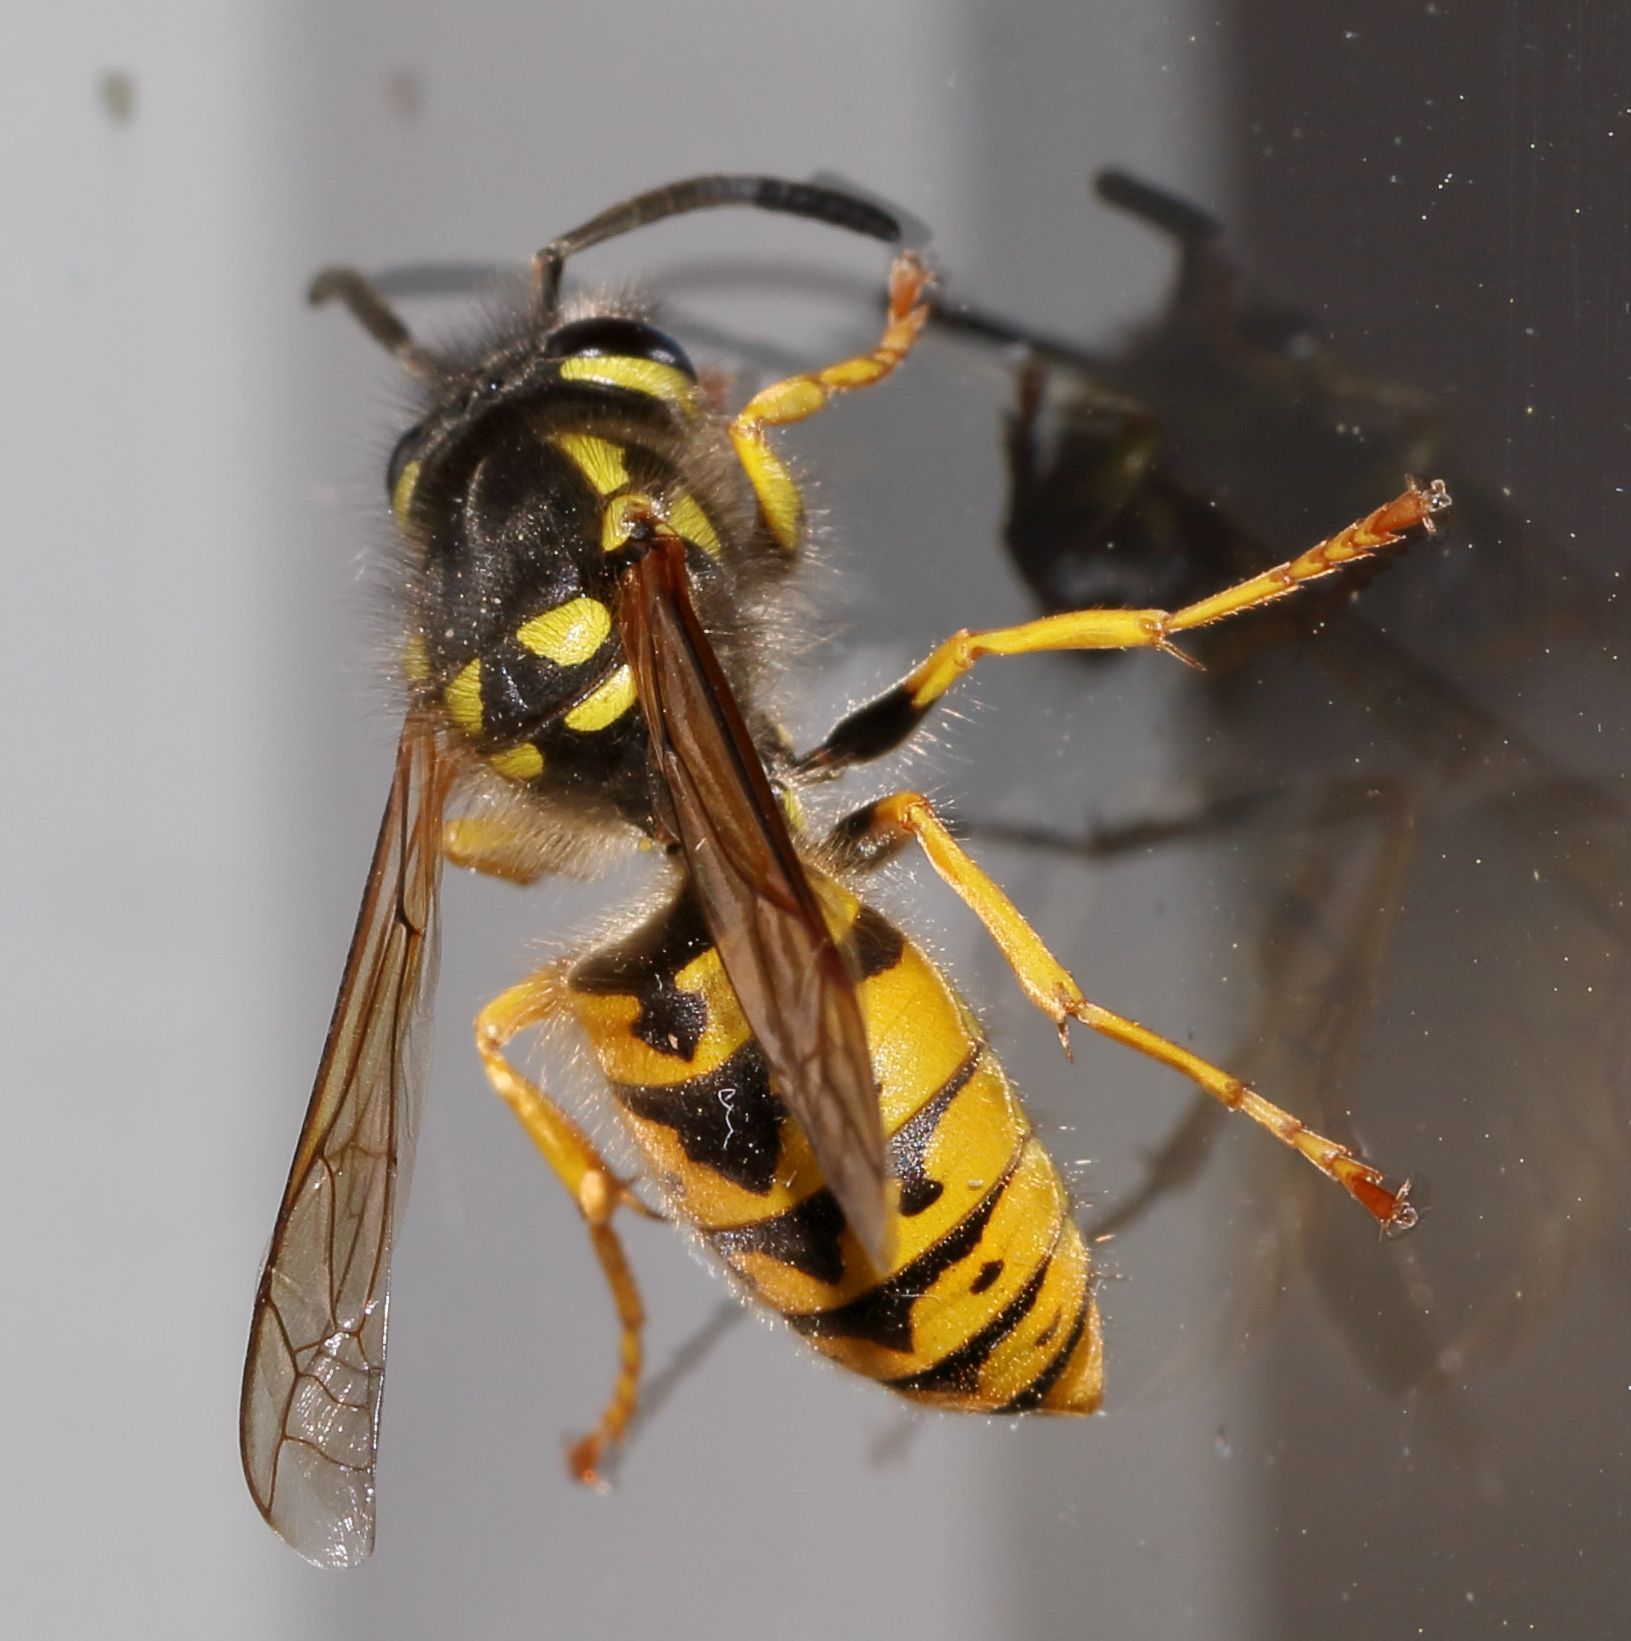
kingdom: Animalia
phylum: Arthropoda
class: Insecta
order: Hymenoptera
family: Vespidae
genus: Vespula
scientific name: Vespula germanica
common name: German wasp
